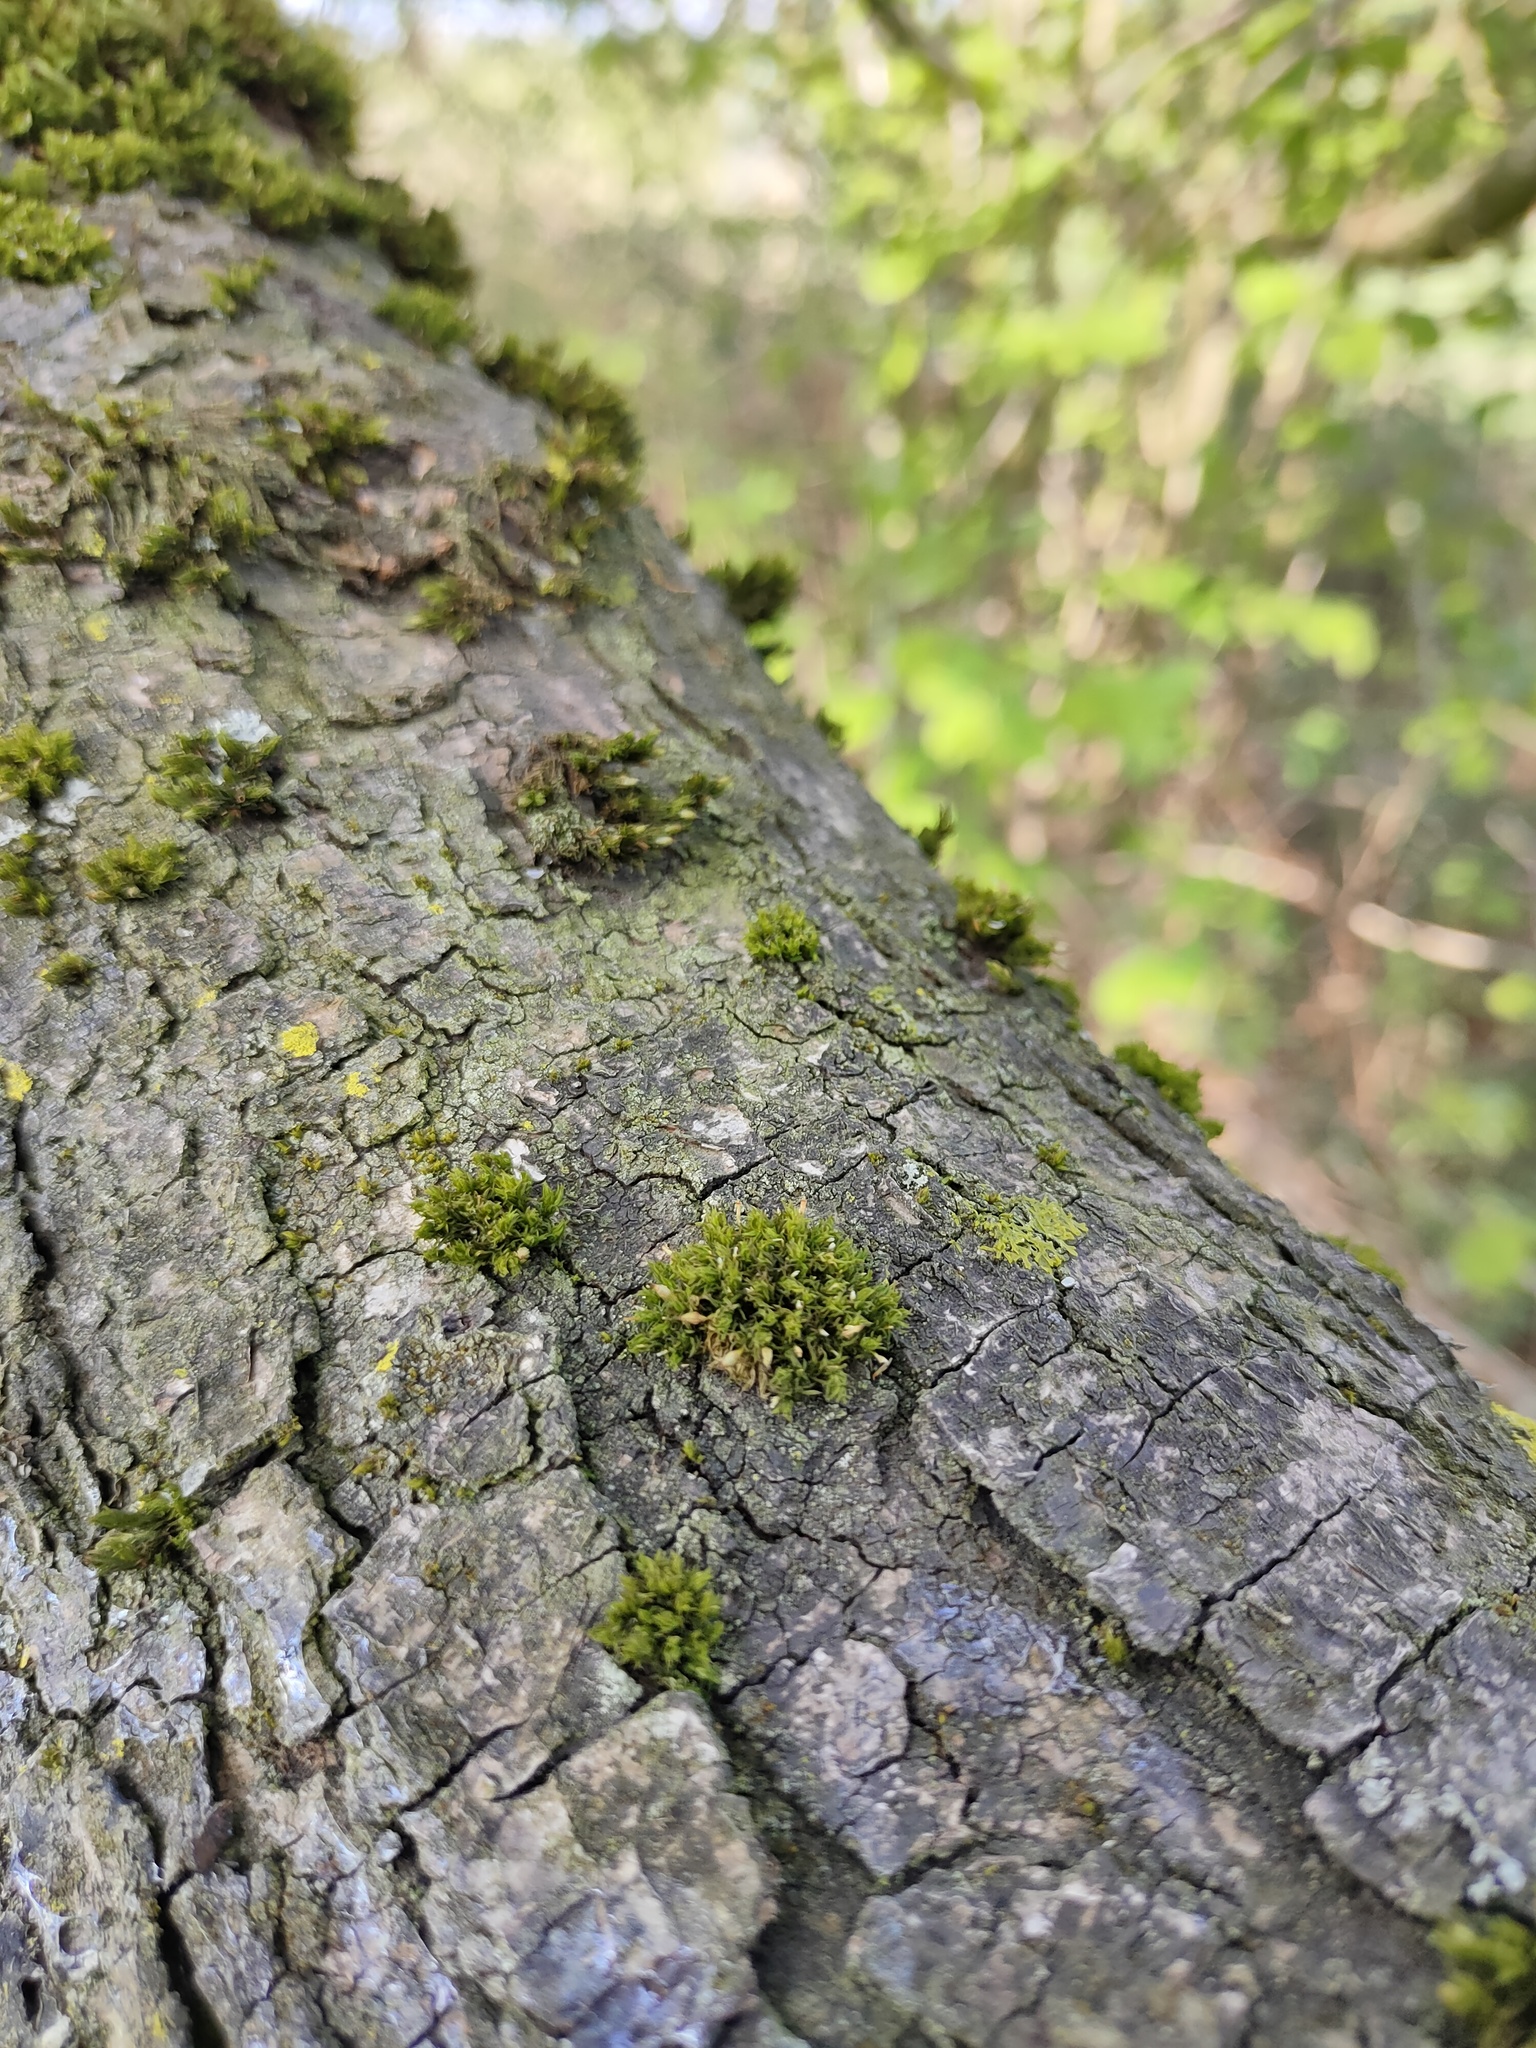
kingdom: Plantae
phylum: Bryophyta
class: Bryopsida
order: Orthotrichales
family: Orthotrichaceae
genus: Orthotrichum
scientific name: Orthotrichum pulchellum
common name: Elegant bristle-moss
